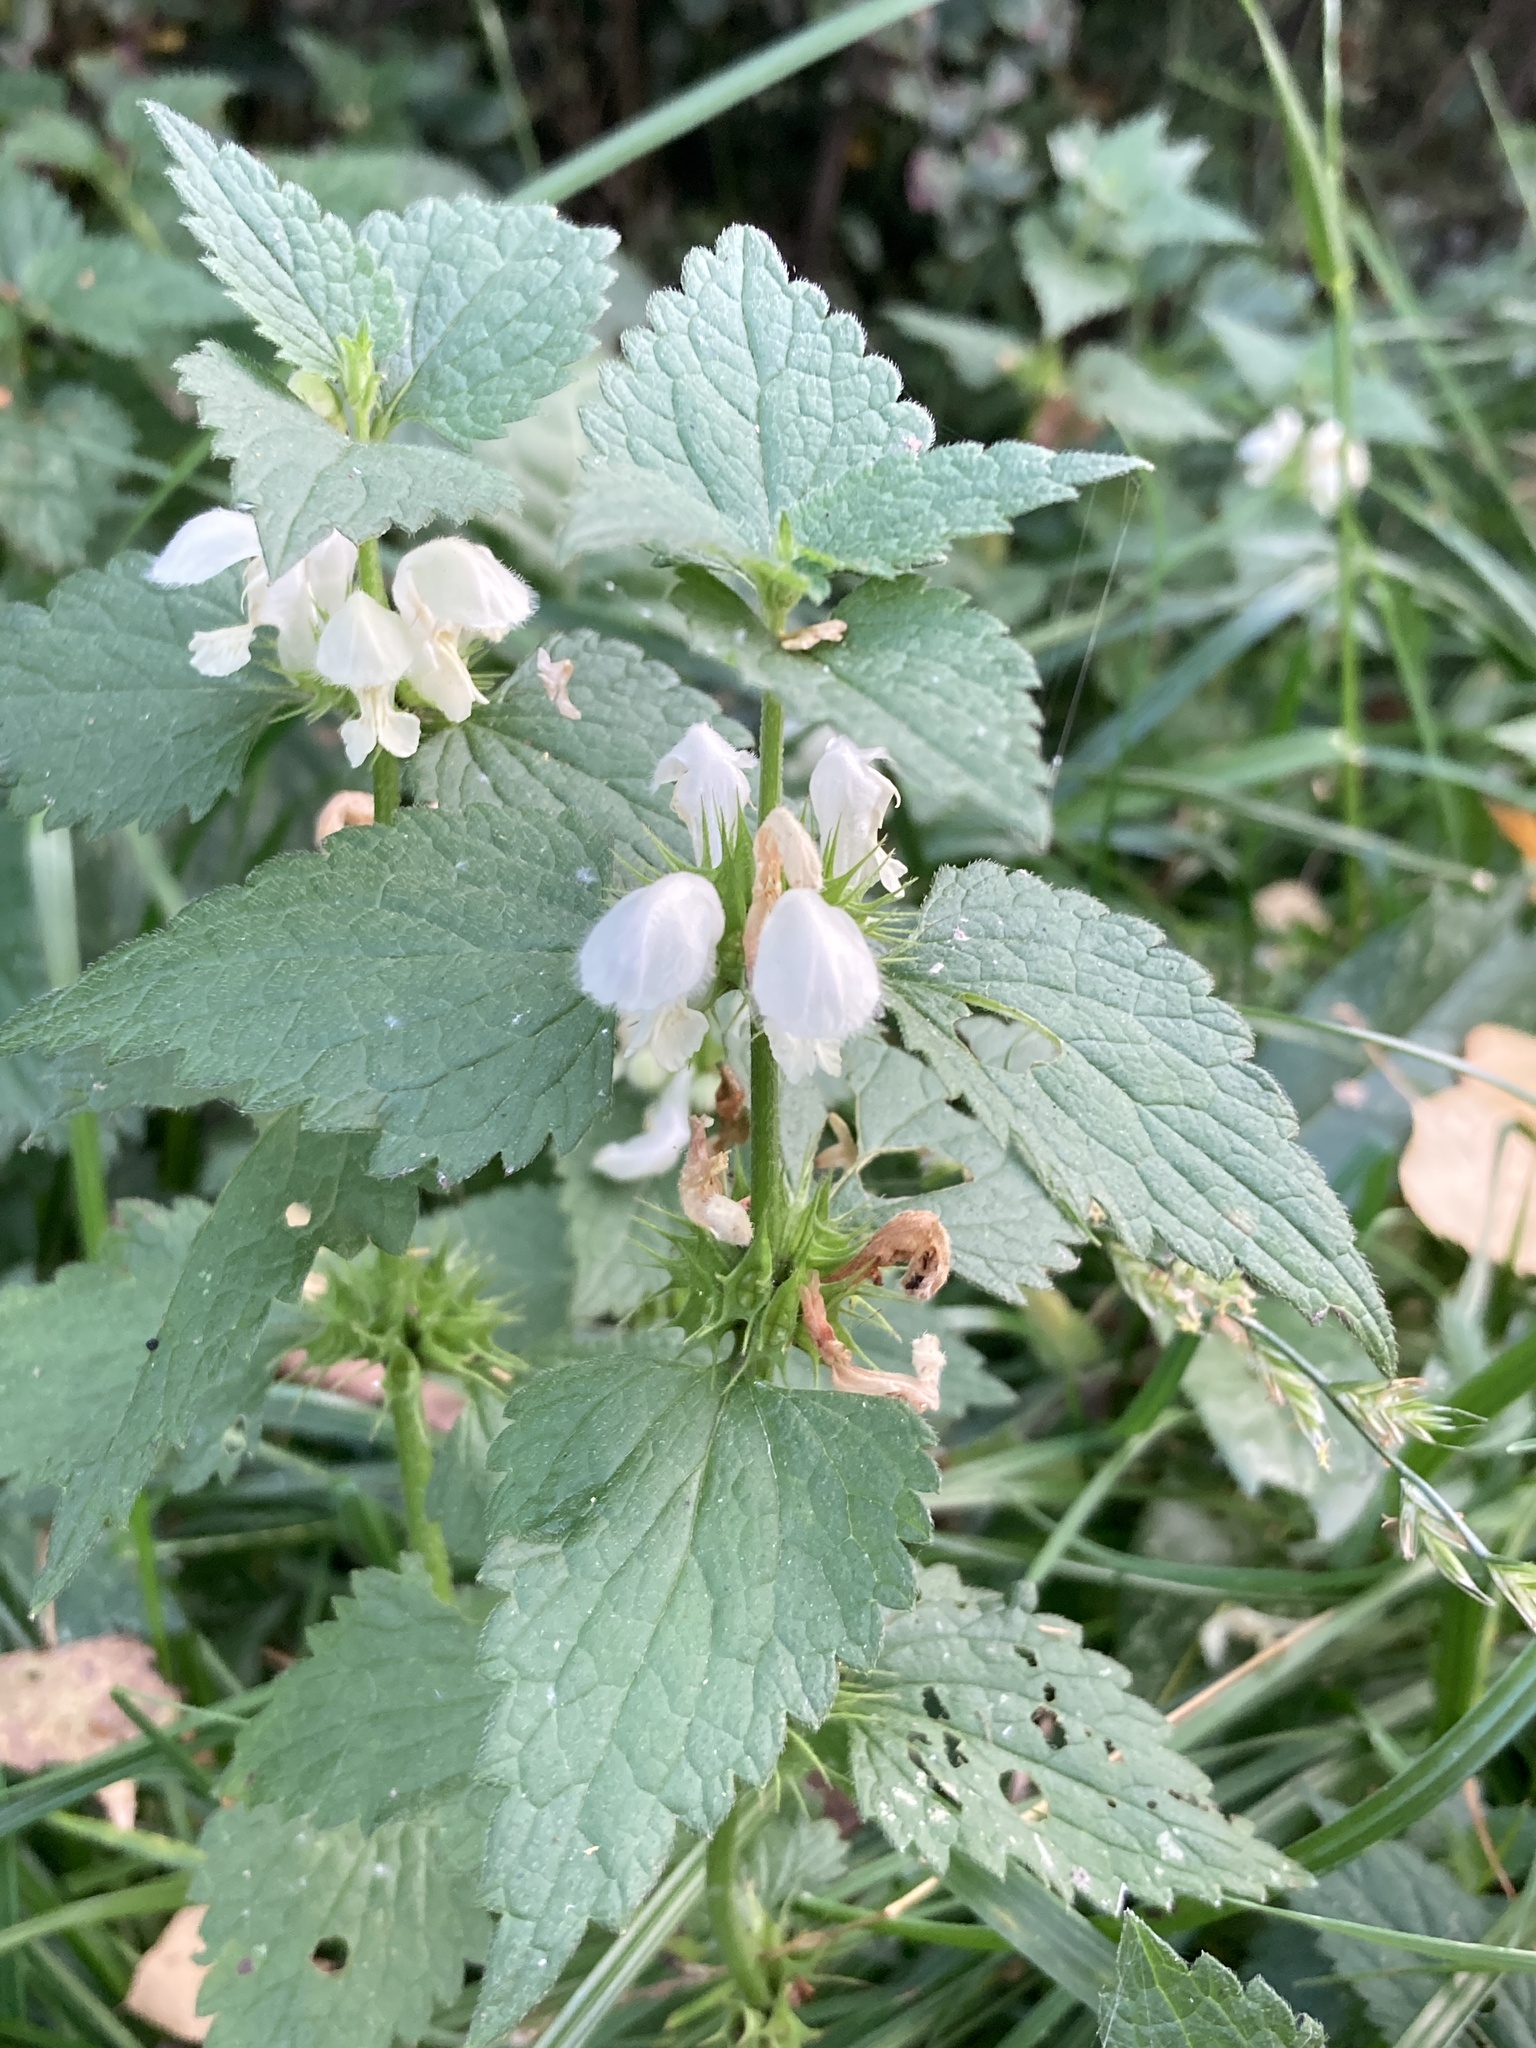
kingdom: Plantae
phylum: Tracheophyta
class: Magnoliopsida
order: Lamiales
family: Lamiaceae
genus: Lamium
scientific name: Lamium album
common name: White dead-nettle
